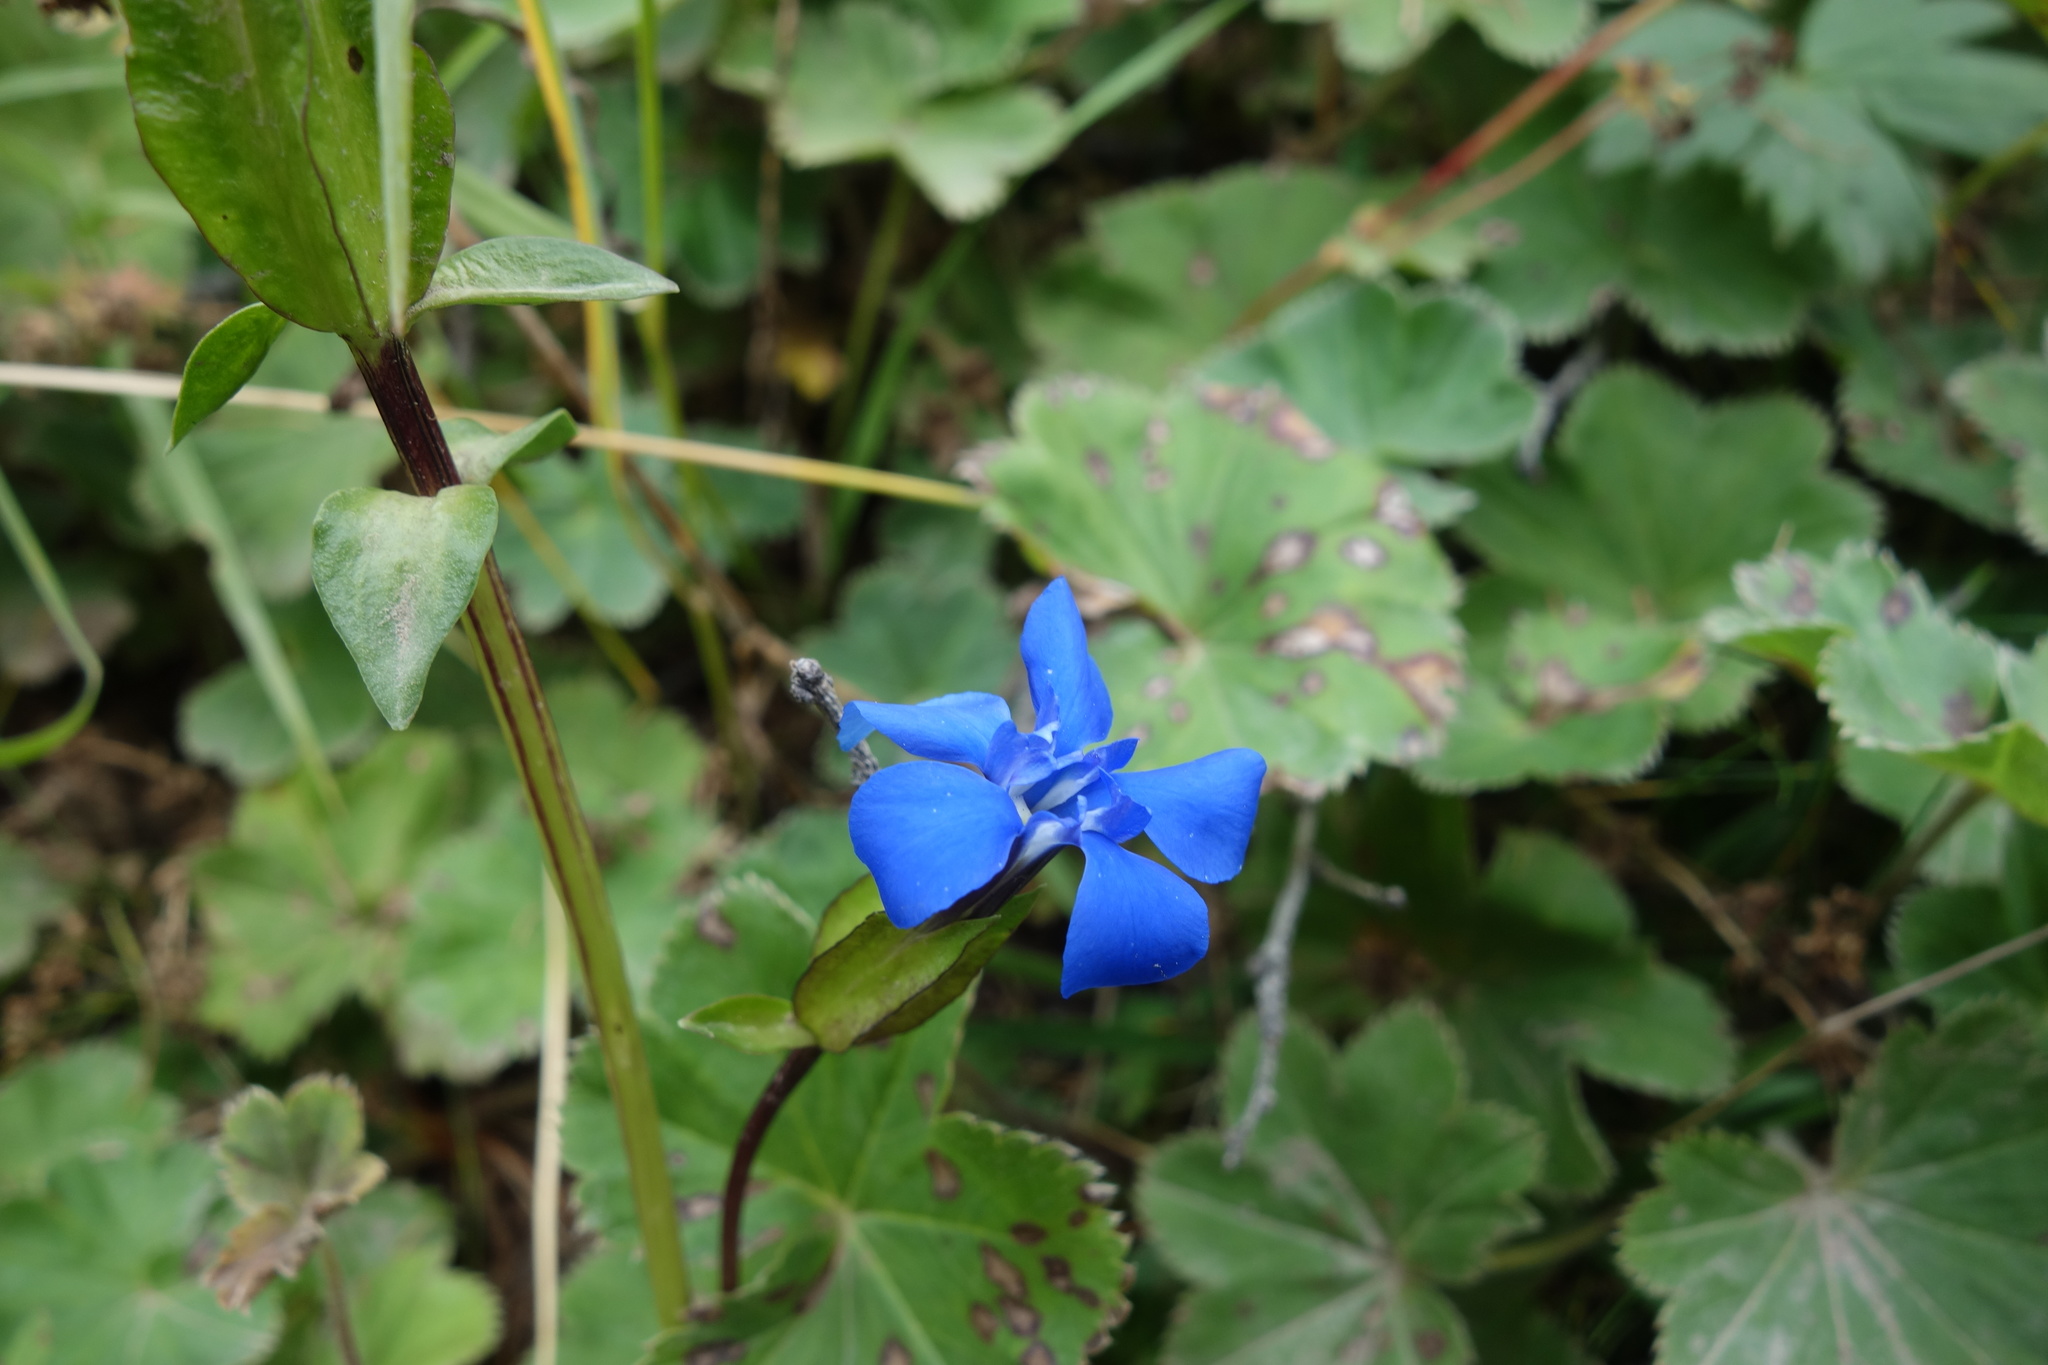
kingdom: Plantae
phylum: Tracheophyta
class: Magnoliopsida
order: Gentianales
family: Gentianaceae
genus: Gentiana
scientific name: Gentiana uniflora
